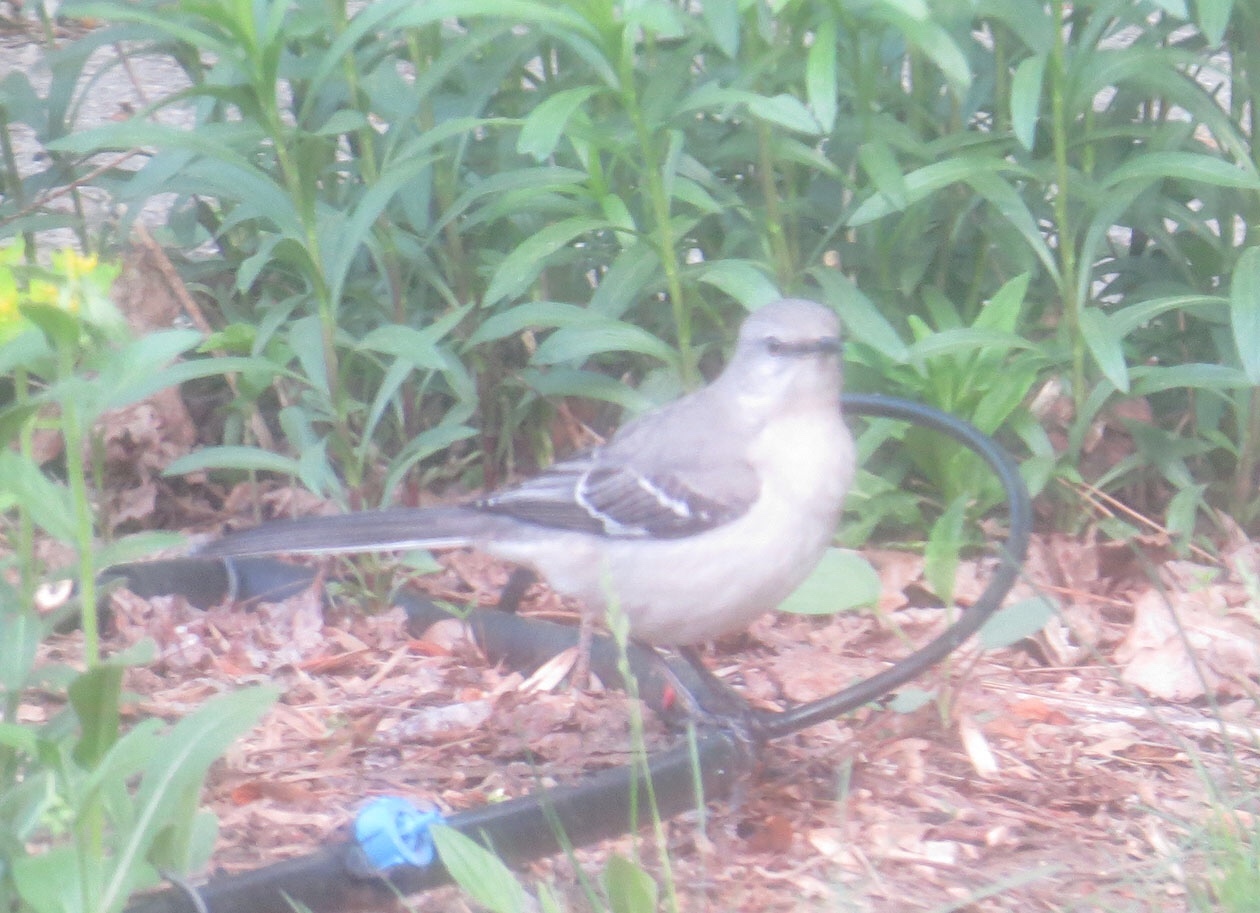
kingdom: Animalia
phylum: Chordata
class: Aves
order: Passeriformes
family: Mimidae
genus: Mimus
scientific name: Mimus polyglottos
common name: Northern mockingbird
